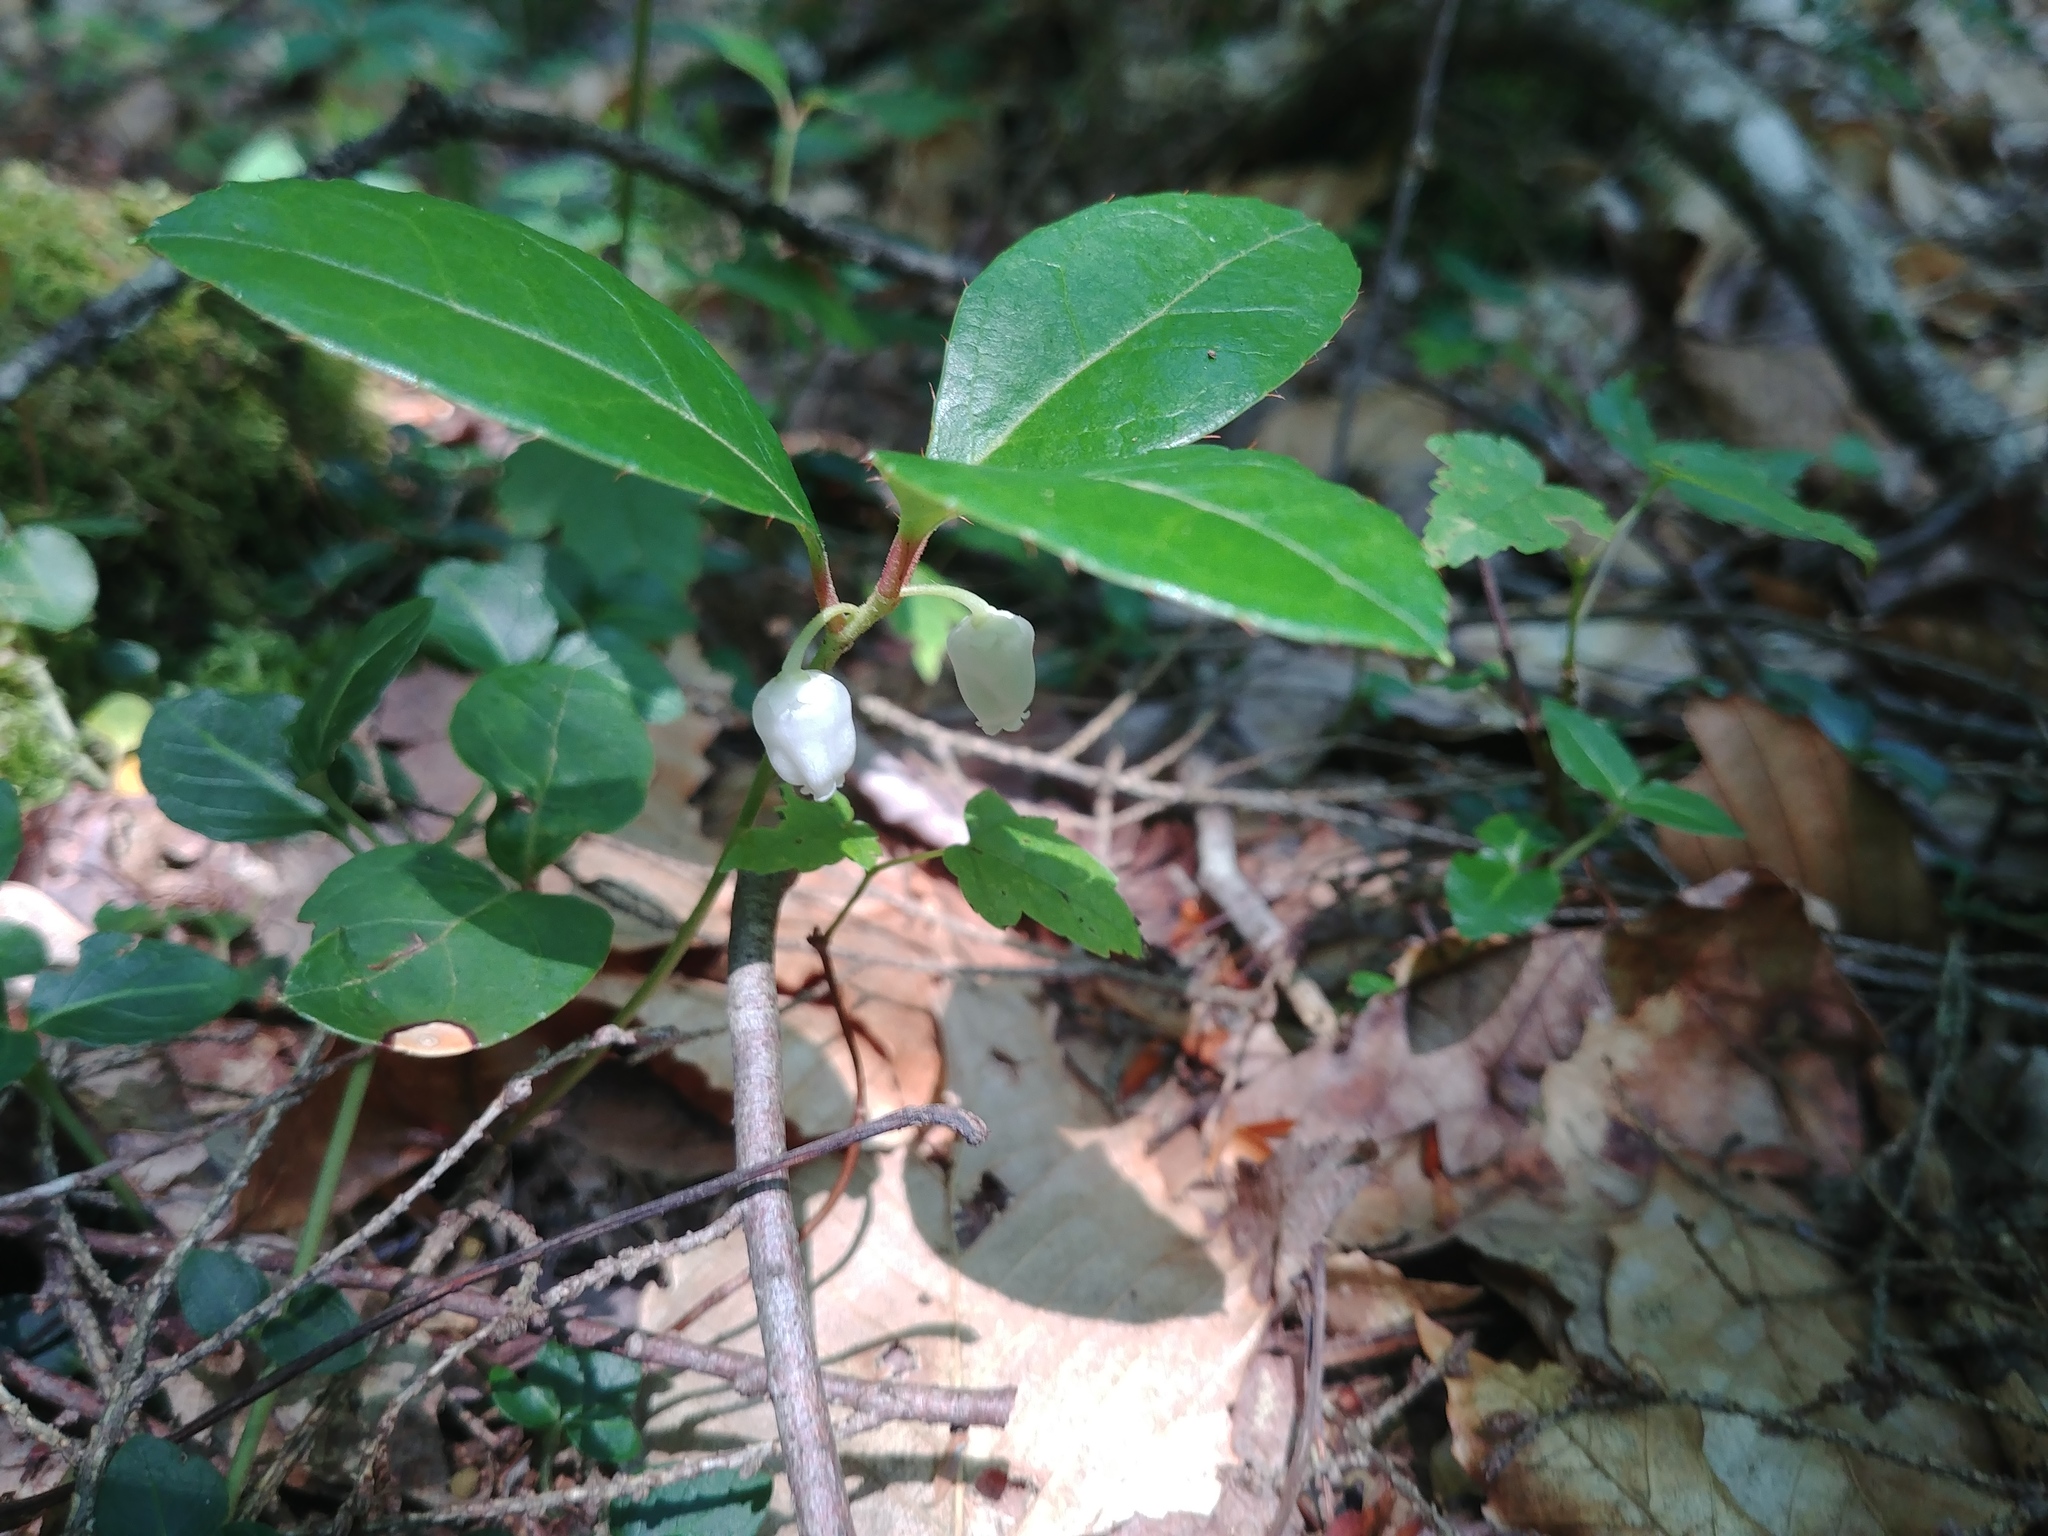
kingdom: Plantae
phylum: Tracheophyta
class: Magnoliopsida
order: Ericales
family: Ericaceae
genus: Gaultheria
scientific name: Gaultheria procumbens
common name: Checkerberry
